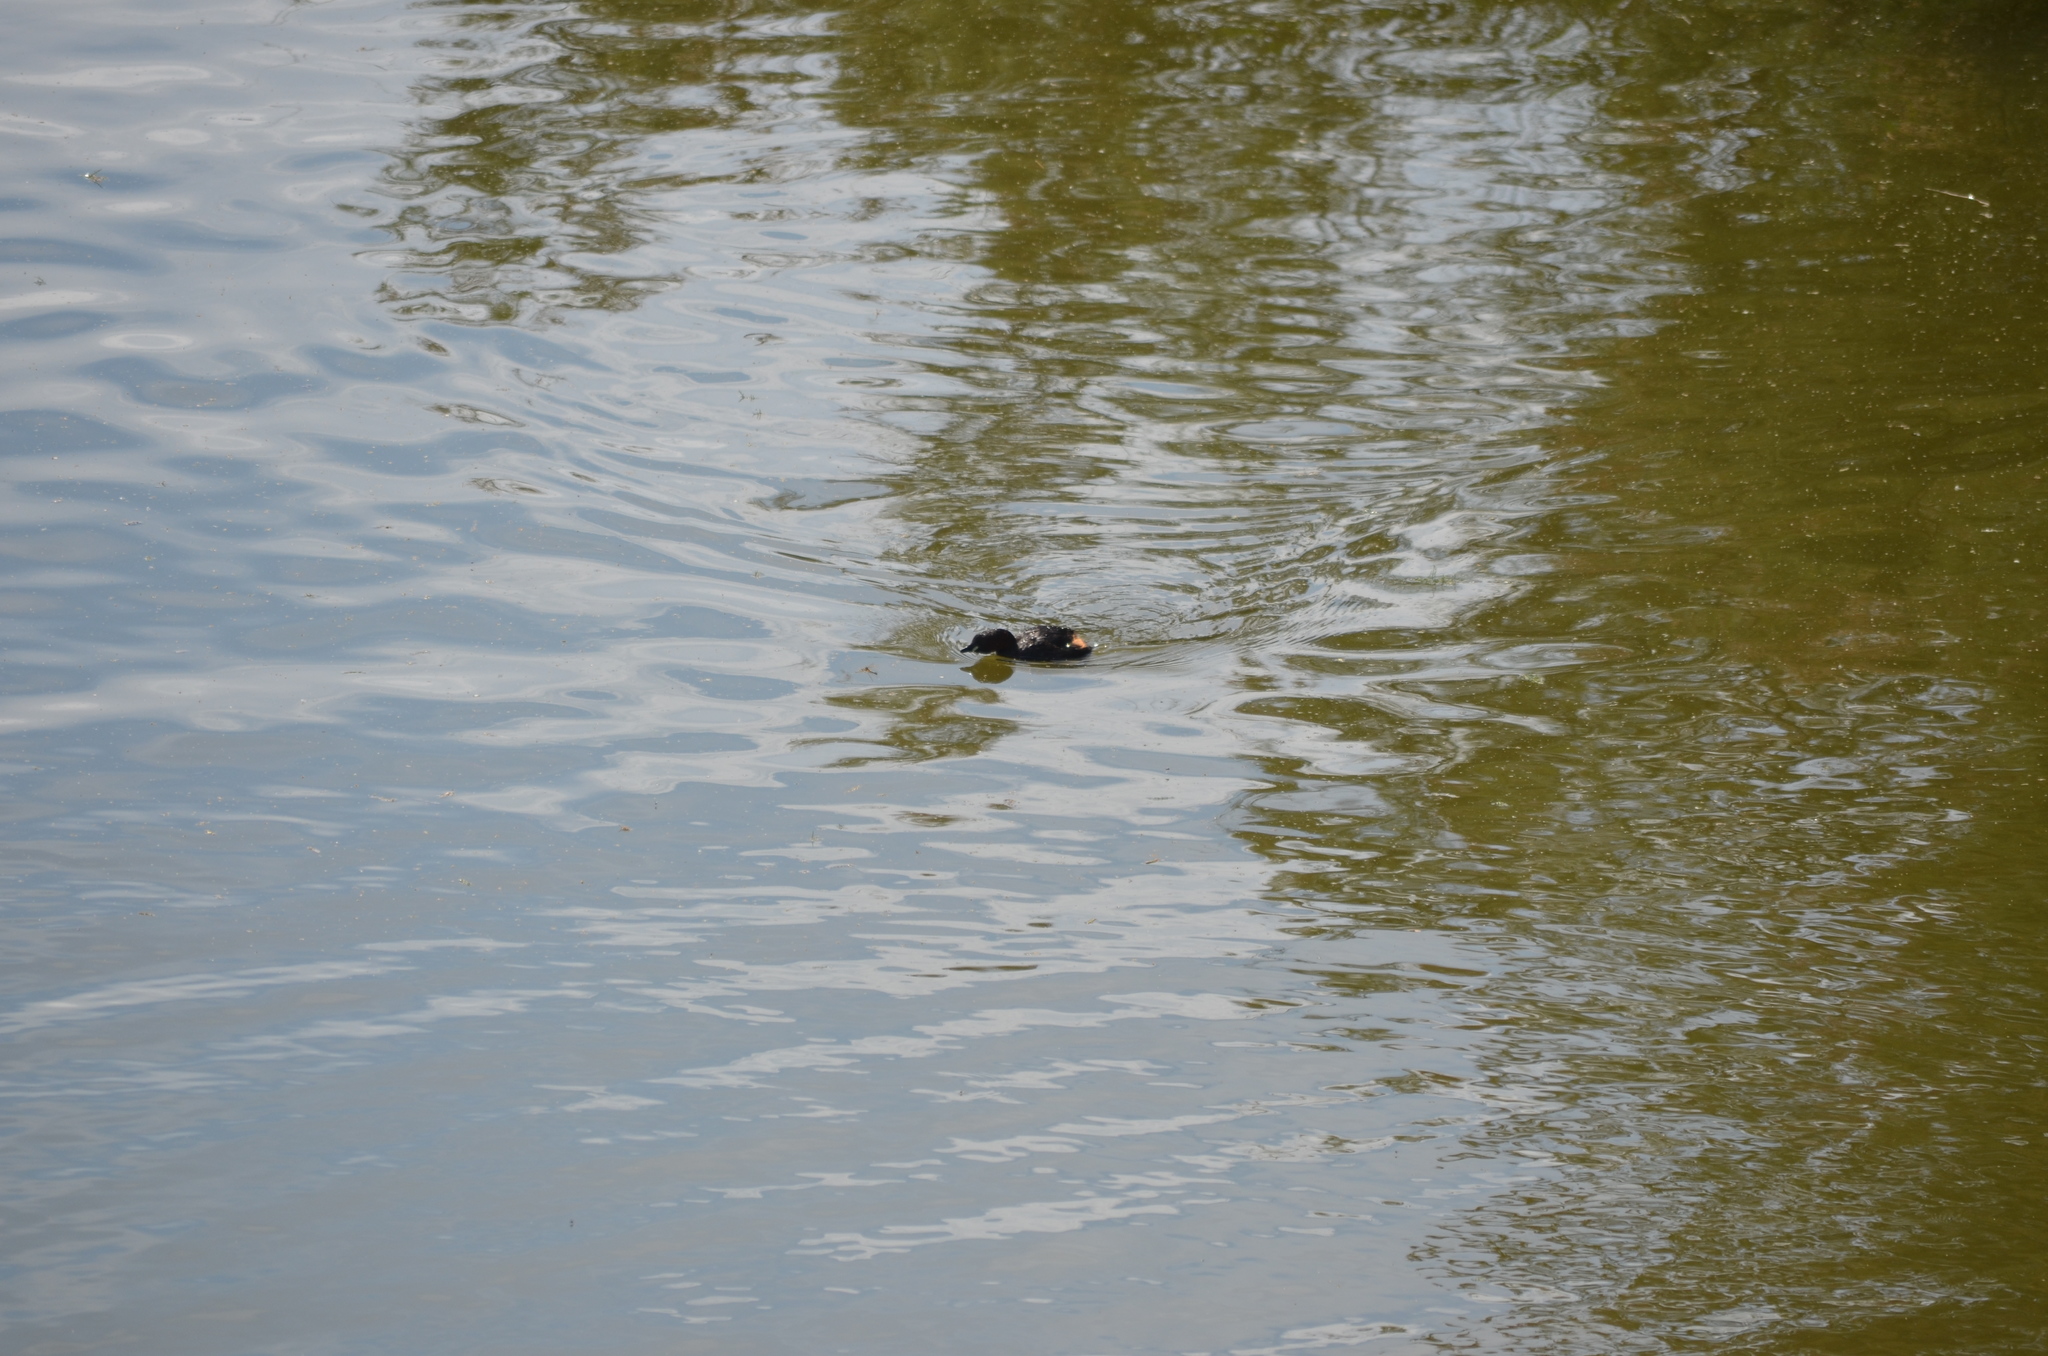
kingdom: Animalia
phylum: Chordata
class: Aves
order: Podicipediformes
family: Podicipedidae
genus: Tachybaptus
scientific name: Tachybaptus ruficollis
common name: Little grebe
